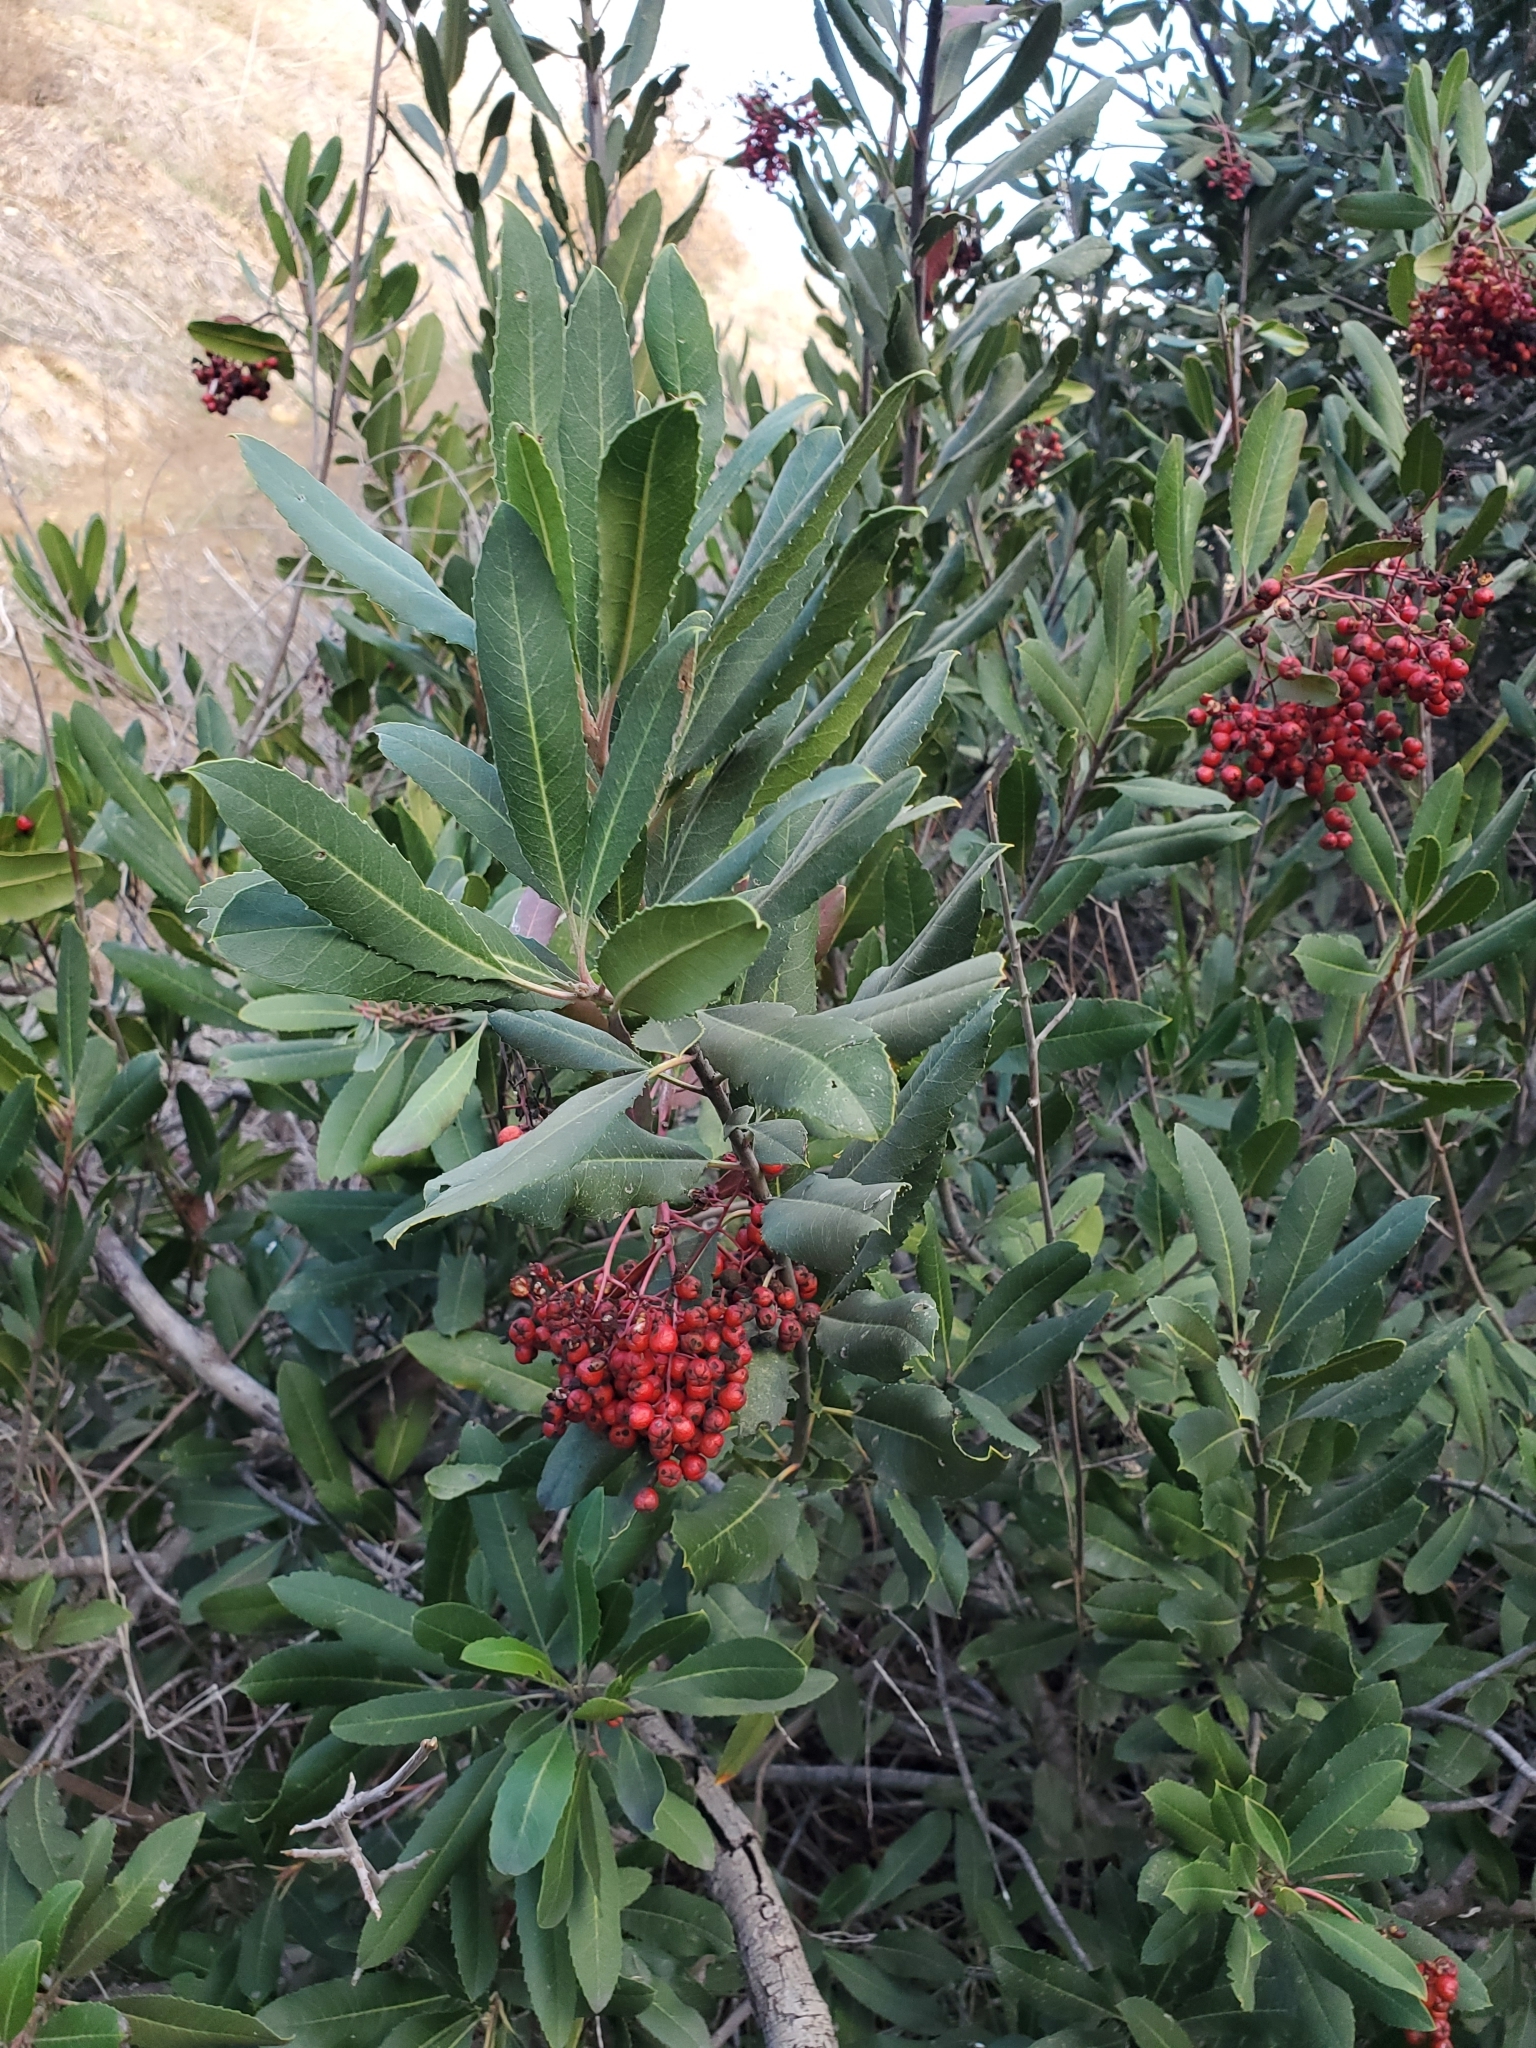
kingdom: Plantae
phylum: Tracheophyta
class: Magnoliopsida
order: Rosales
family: Rosaceae
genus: Heteromeles
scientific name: Heteromeles arbutifolia
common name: California-holly
